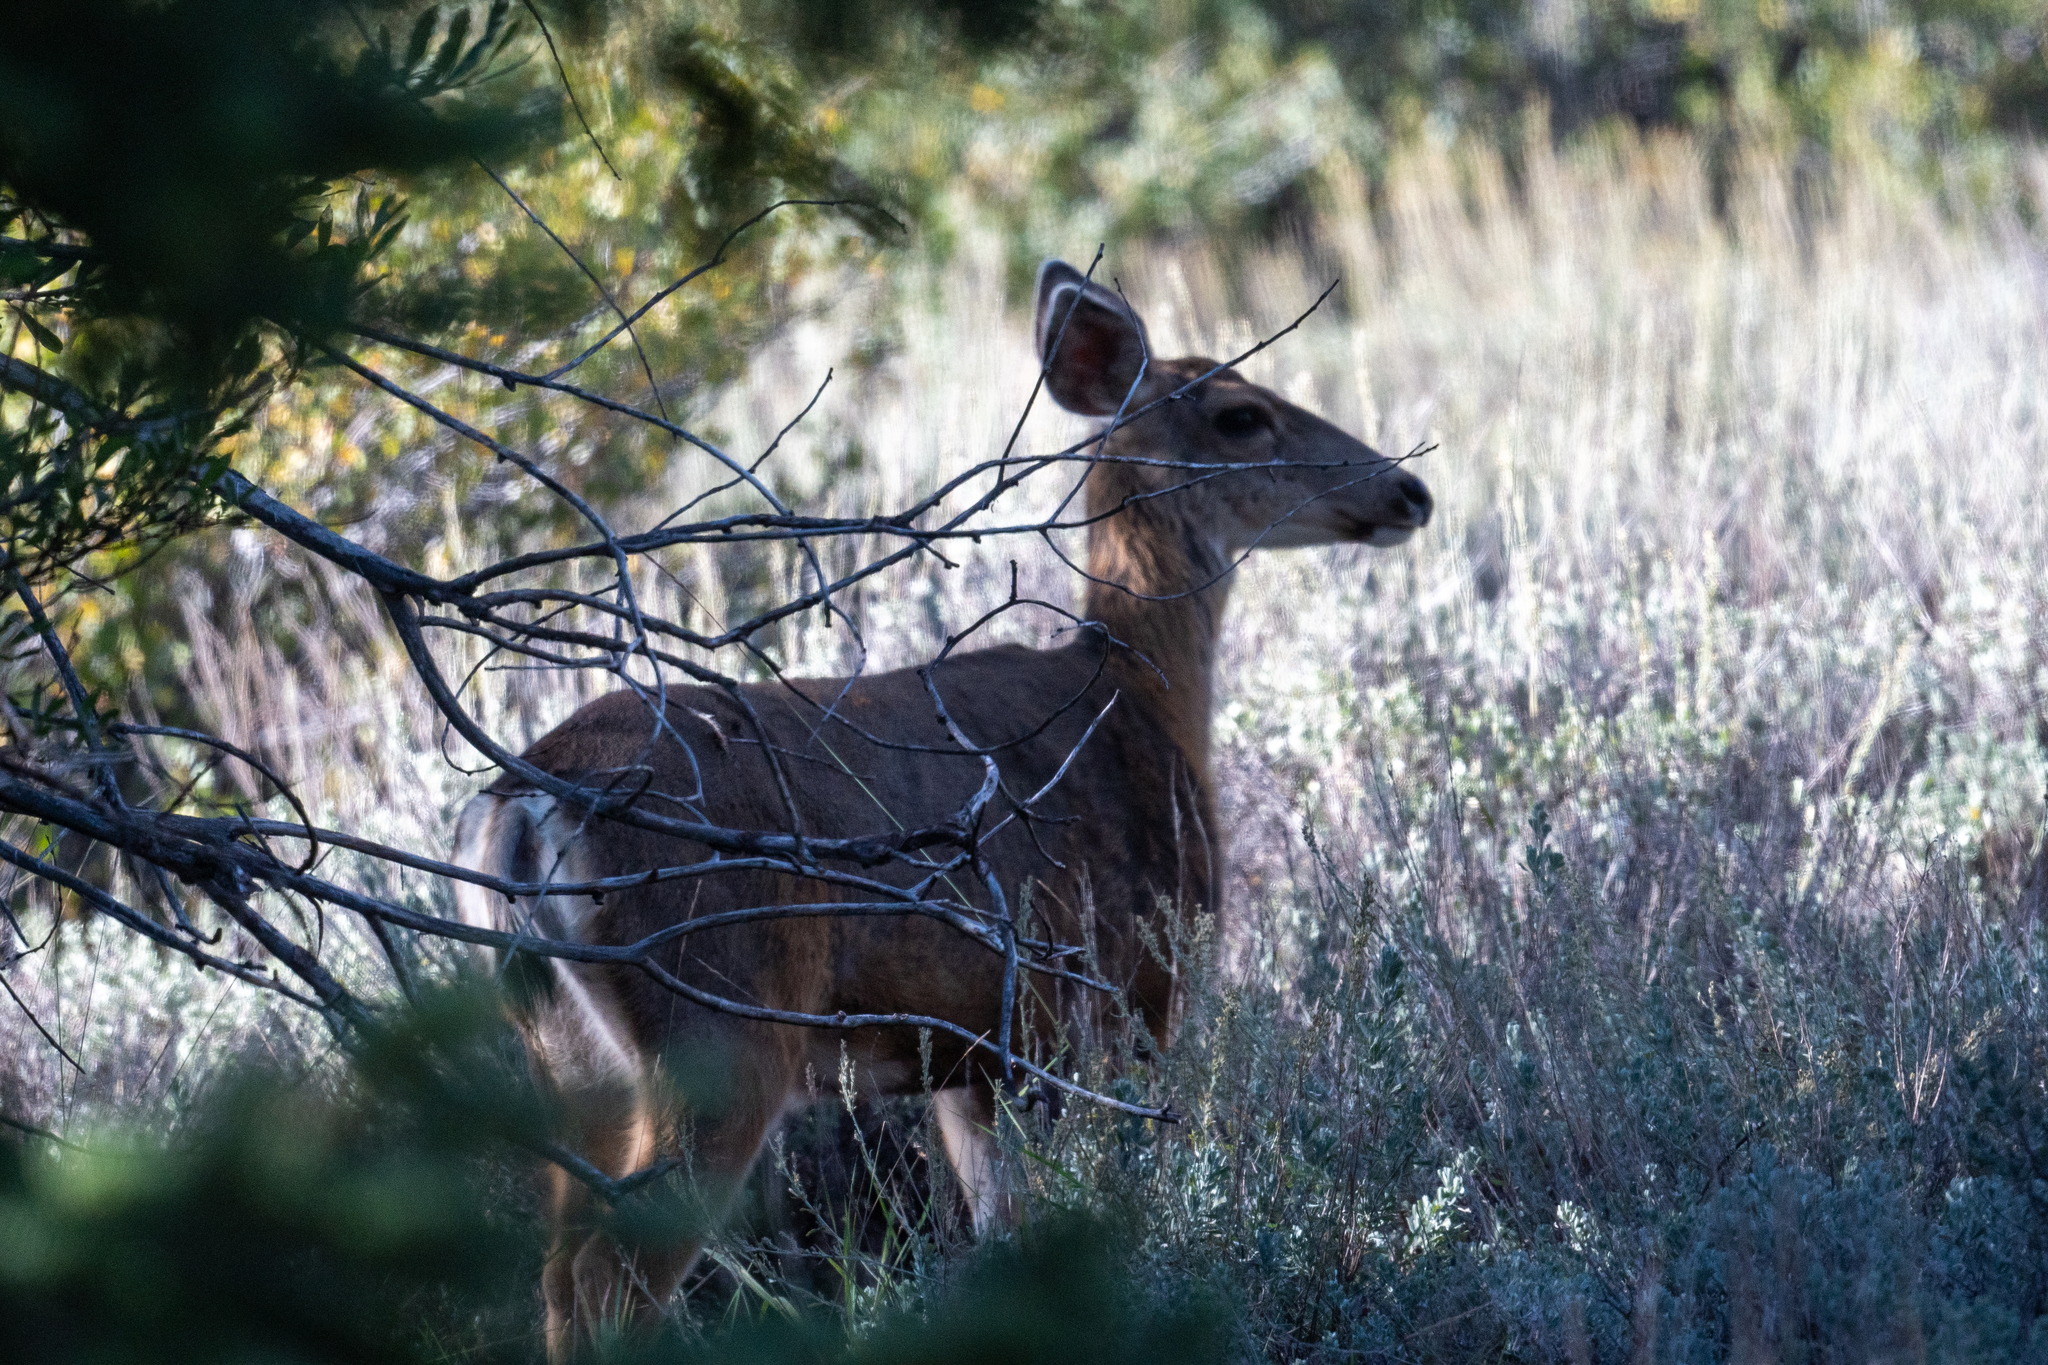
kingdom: Animalia
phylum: Chordata
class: Mammalia
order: Artiodactyla
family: Cervidae
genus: Odocoileus
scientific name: Odocoileus hemionus
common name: Mule deer
